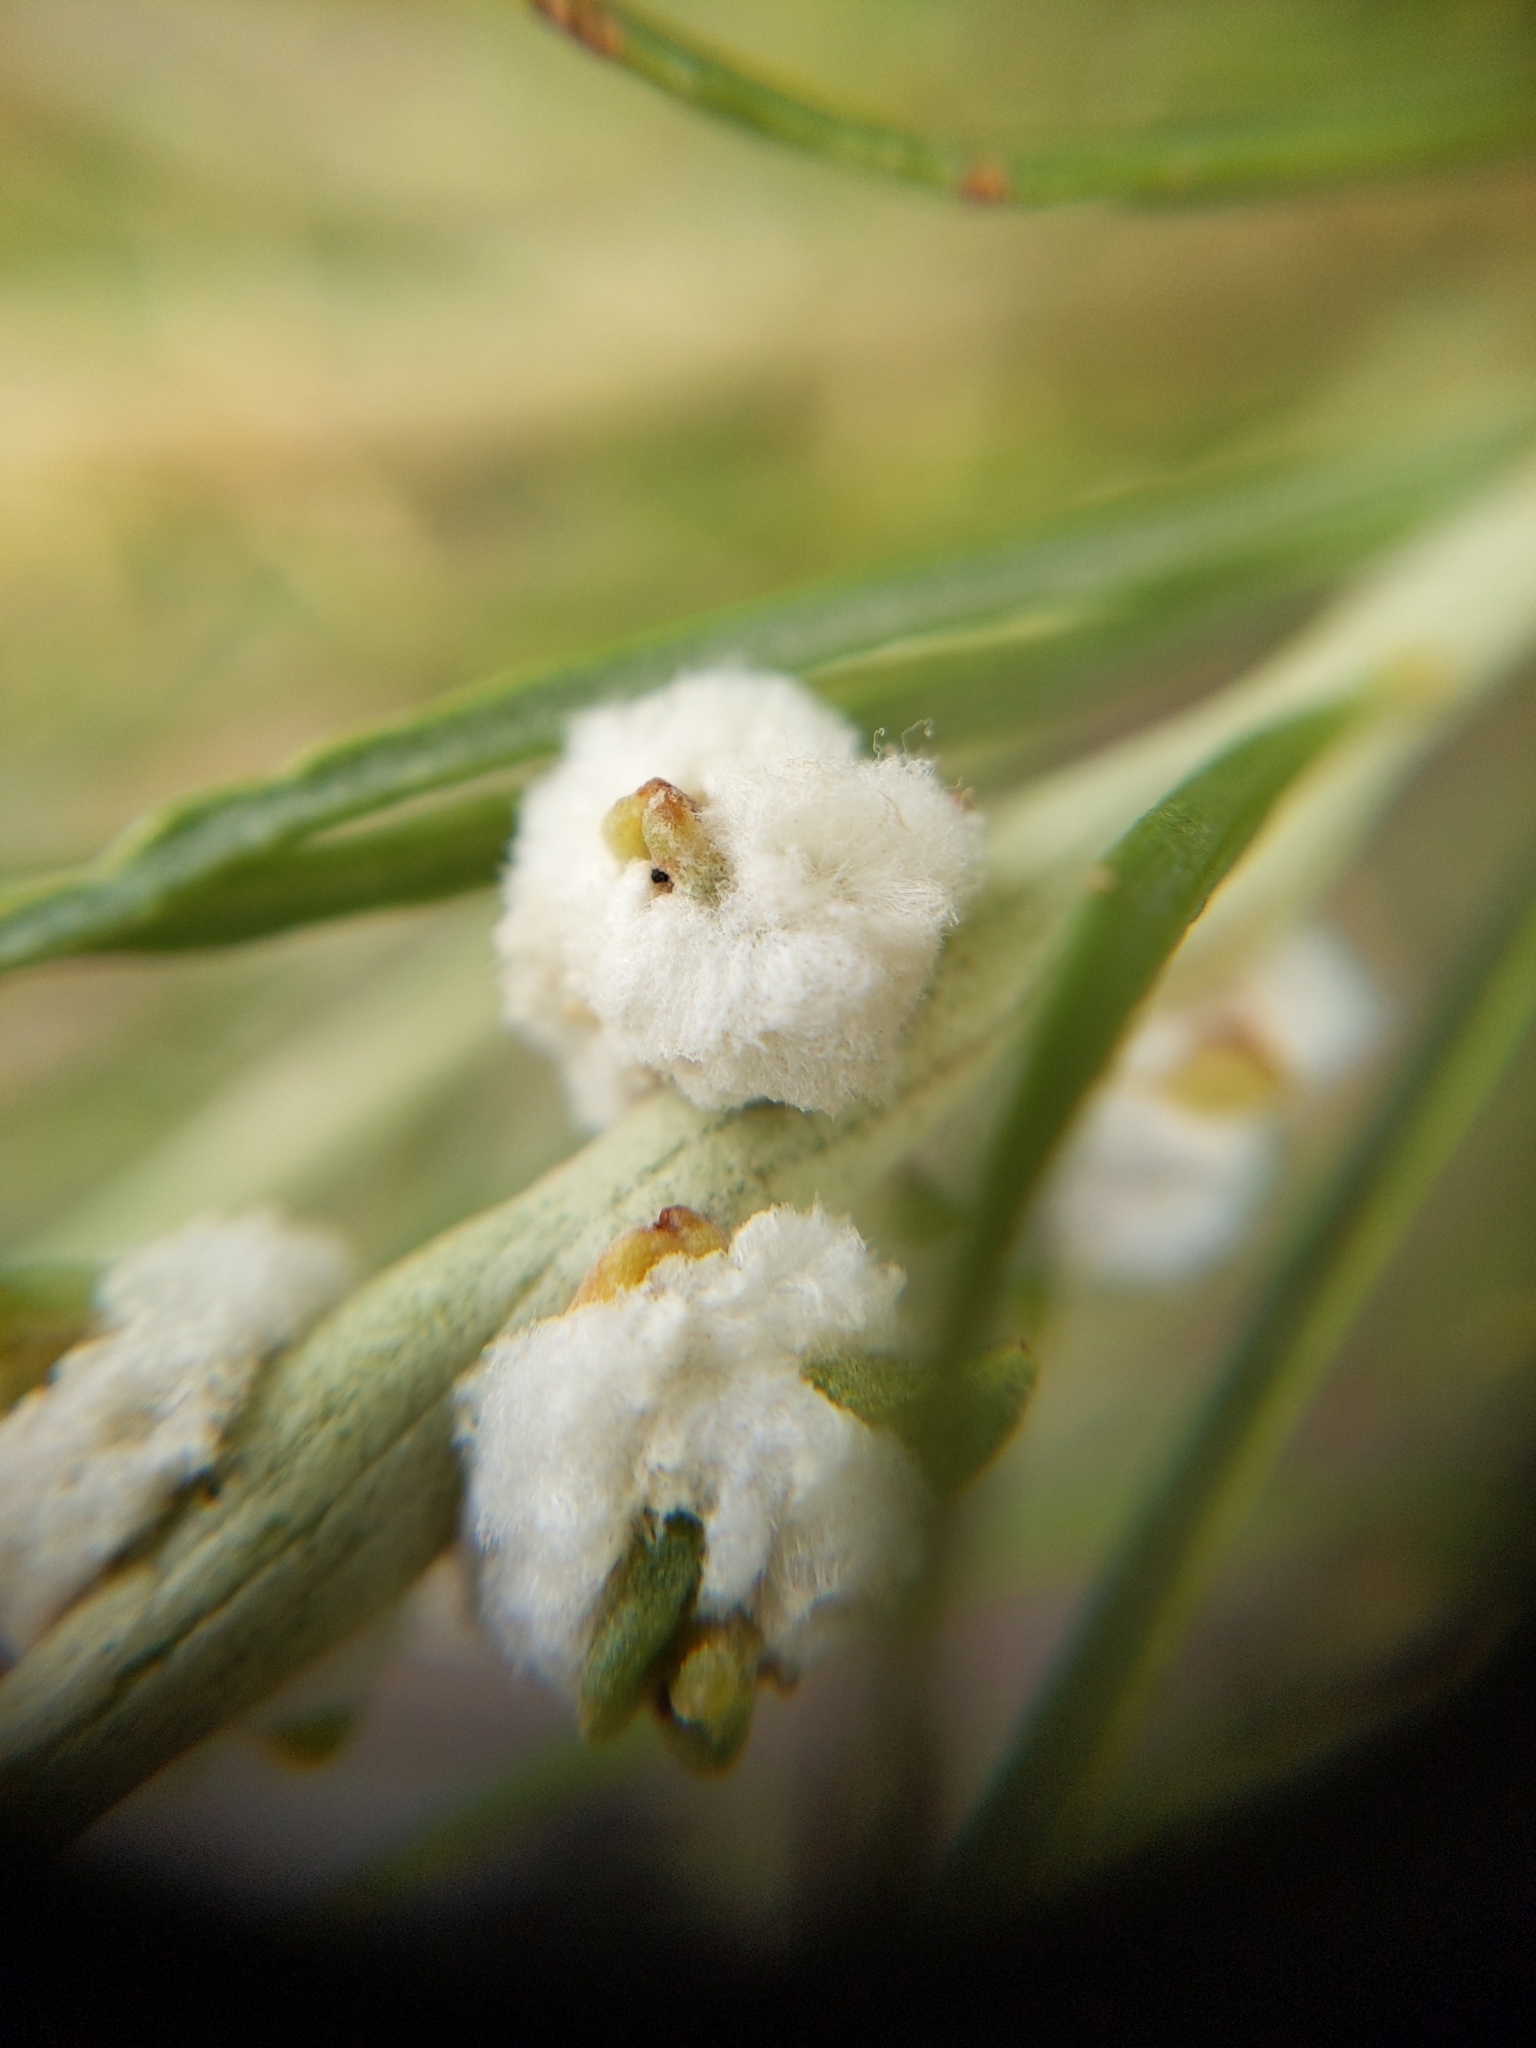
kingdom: Animalia
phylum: Arthropoda
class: Insecta
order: Diptera
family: Tephritidae
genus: Aciurina
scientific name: Aciurina bigeloviae
